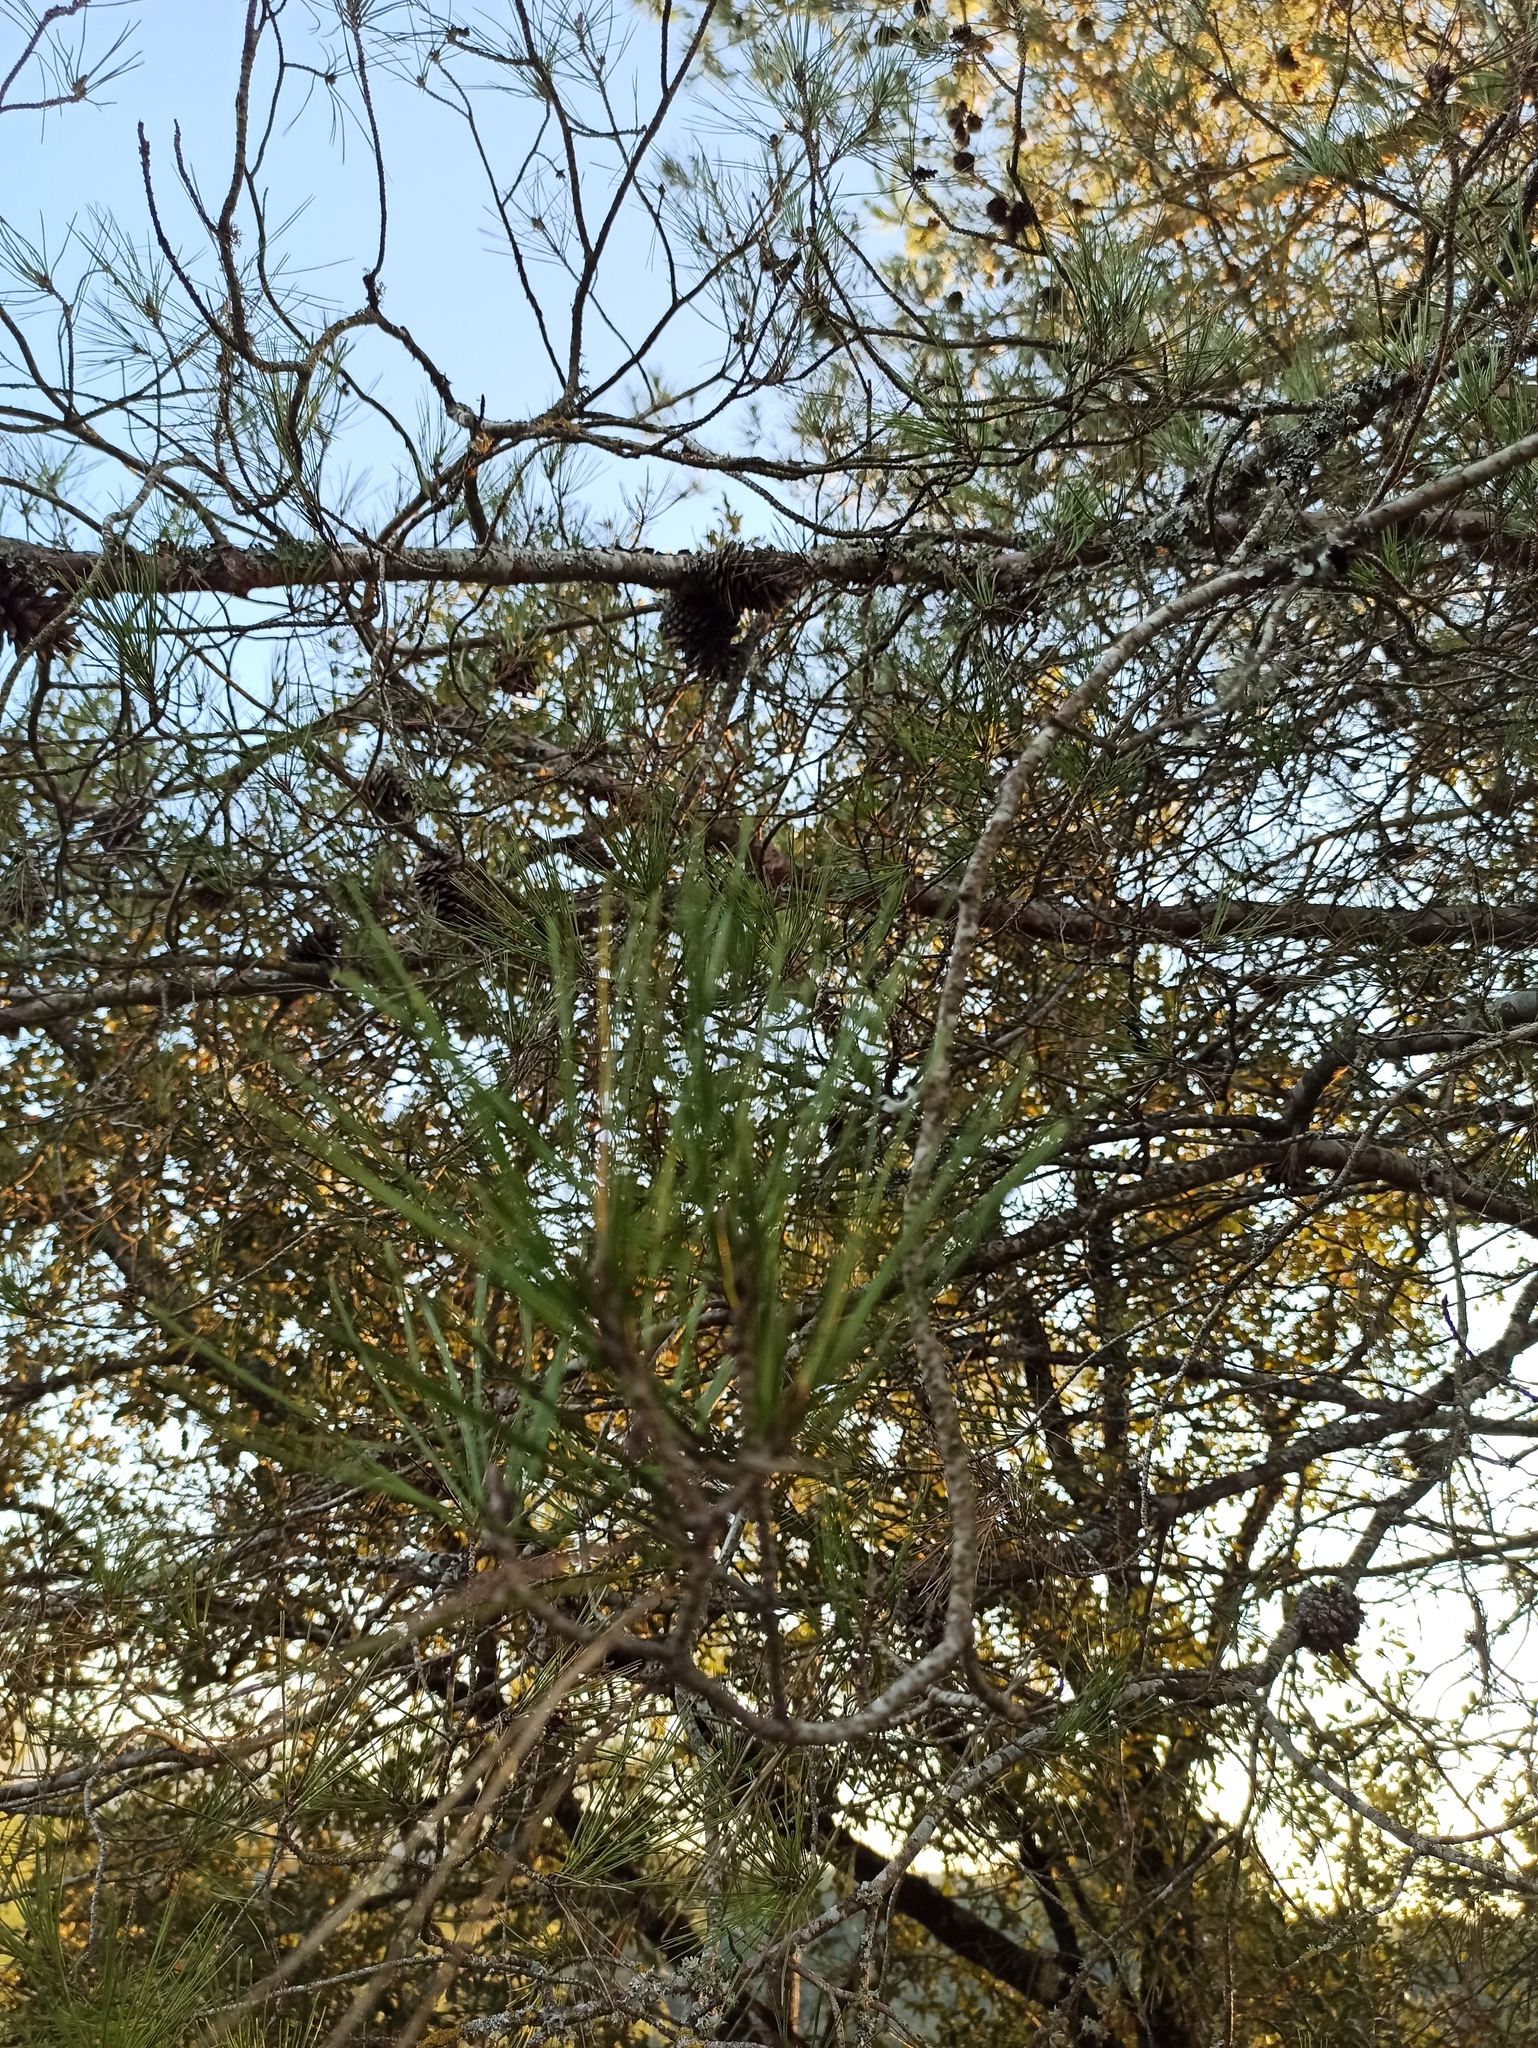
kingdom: Plantae
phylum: Tracheophyta
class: Pinopsida
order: Pinales
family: Pinaceae
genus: Pinus
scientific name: Pinus halepensis
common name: Aleppo pine
